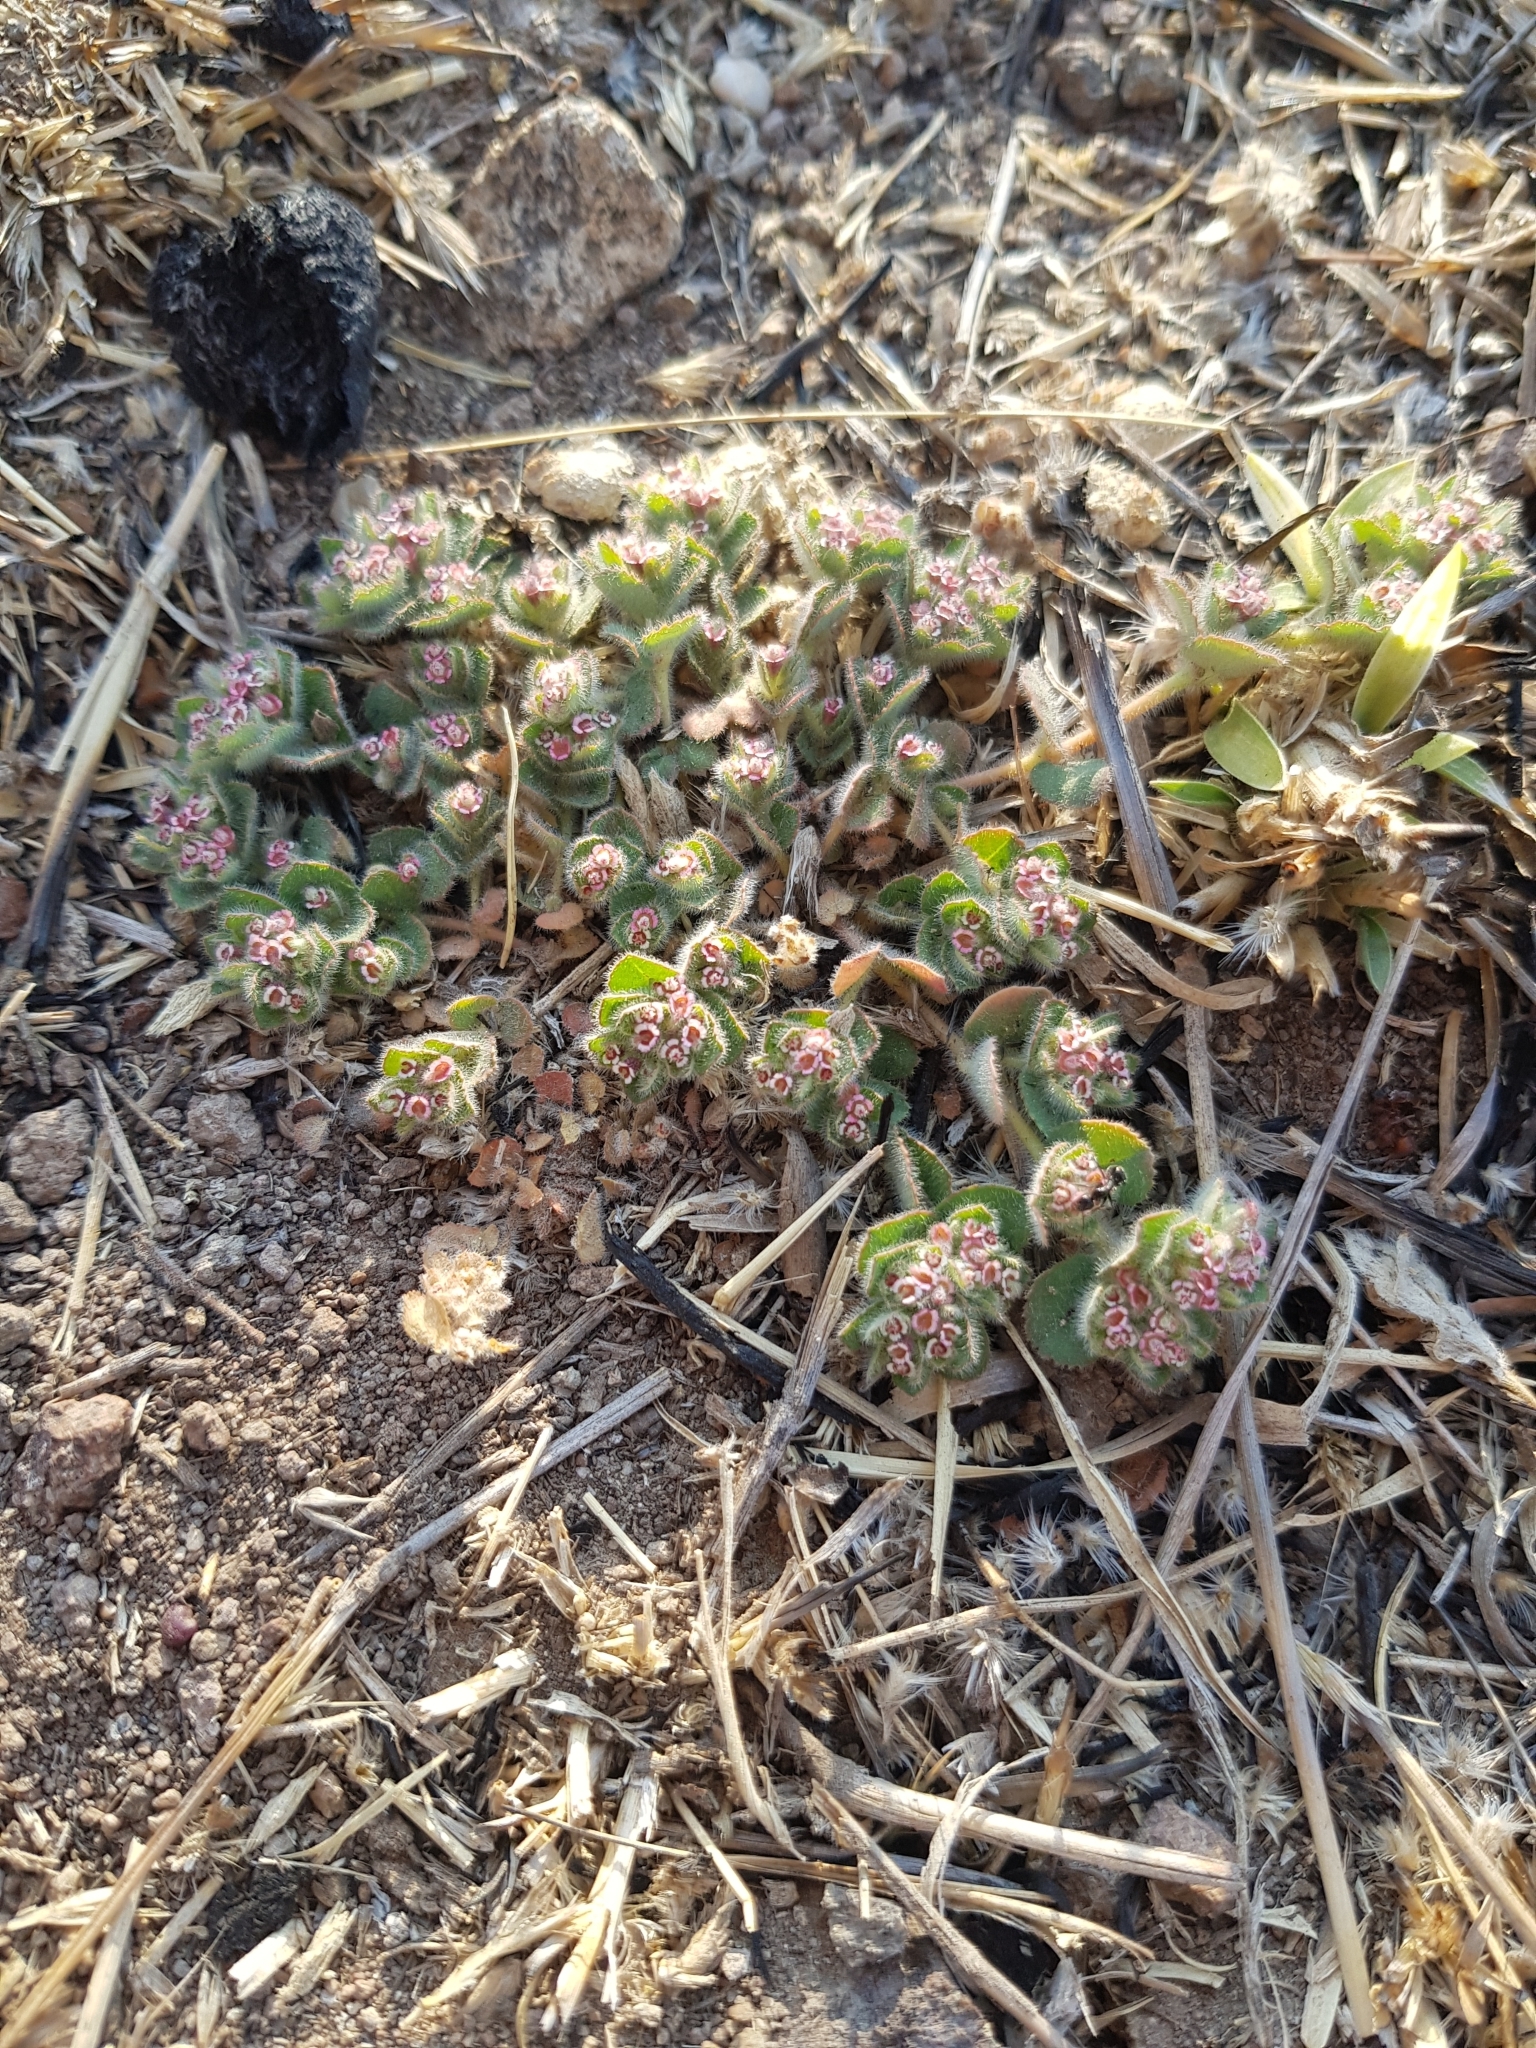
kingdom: Plantae
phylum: Tracheophyta
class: Magnoliopsida
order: Malpighiales
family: Euphorbiaceae
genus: Euphorbia
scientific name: Euphorbia velleriflora
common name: Caliche sandmat
